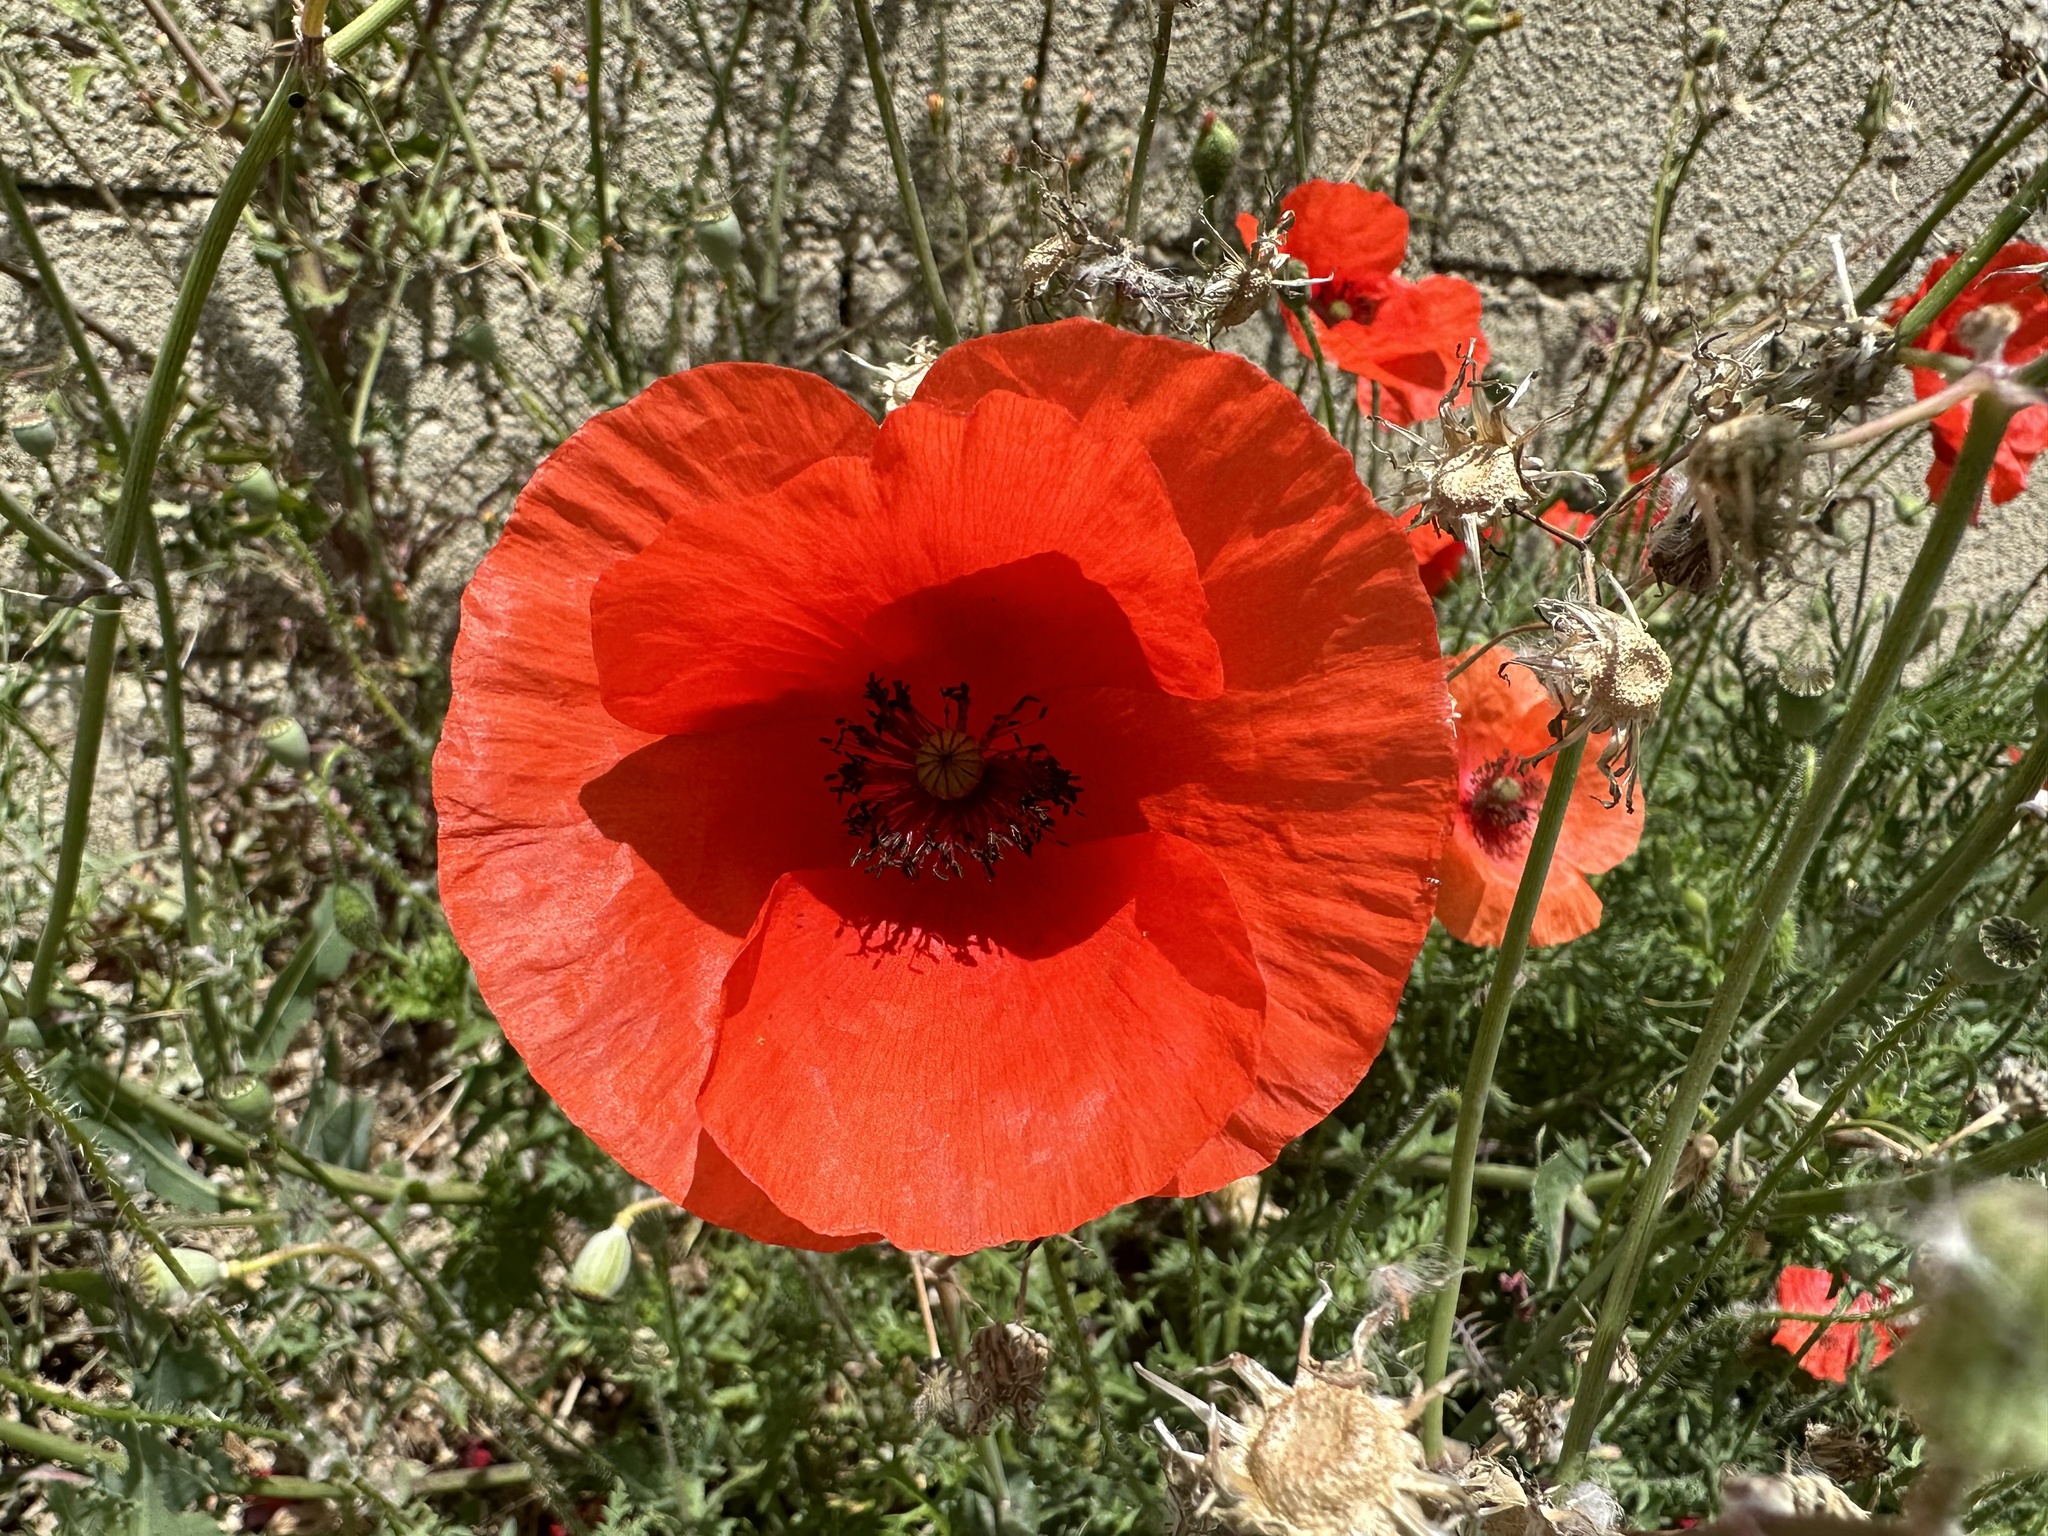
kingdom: Plantae
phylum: Tracheophyta
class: Magnoliopsida
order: Ranunculales
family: Papaveraceae
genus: Papaver
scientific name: Papaver rhoeas
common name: Corn poppy
